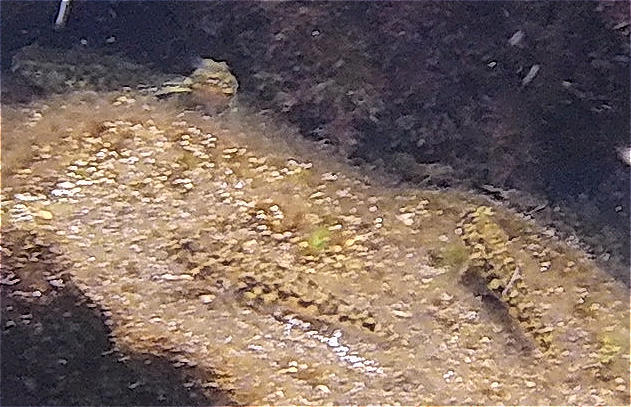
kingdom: Animalia
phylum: Chordata
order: Perciformes
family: Gobiidae
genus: Bathygobius
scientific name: Bathygobius lineatus
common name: Southern frillfin
